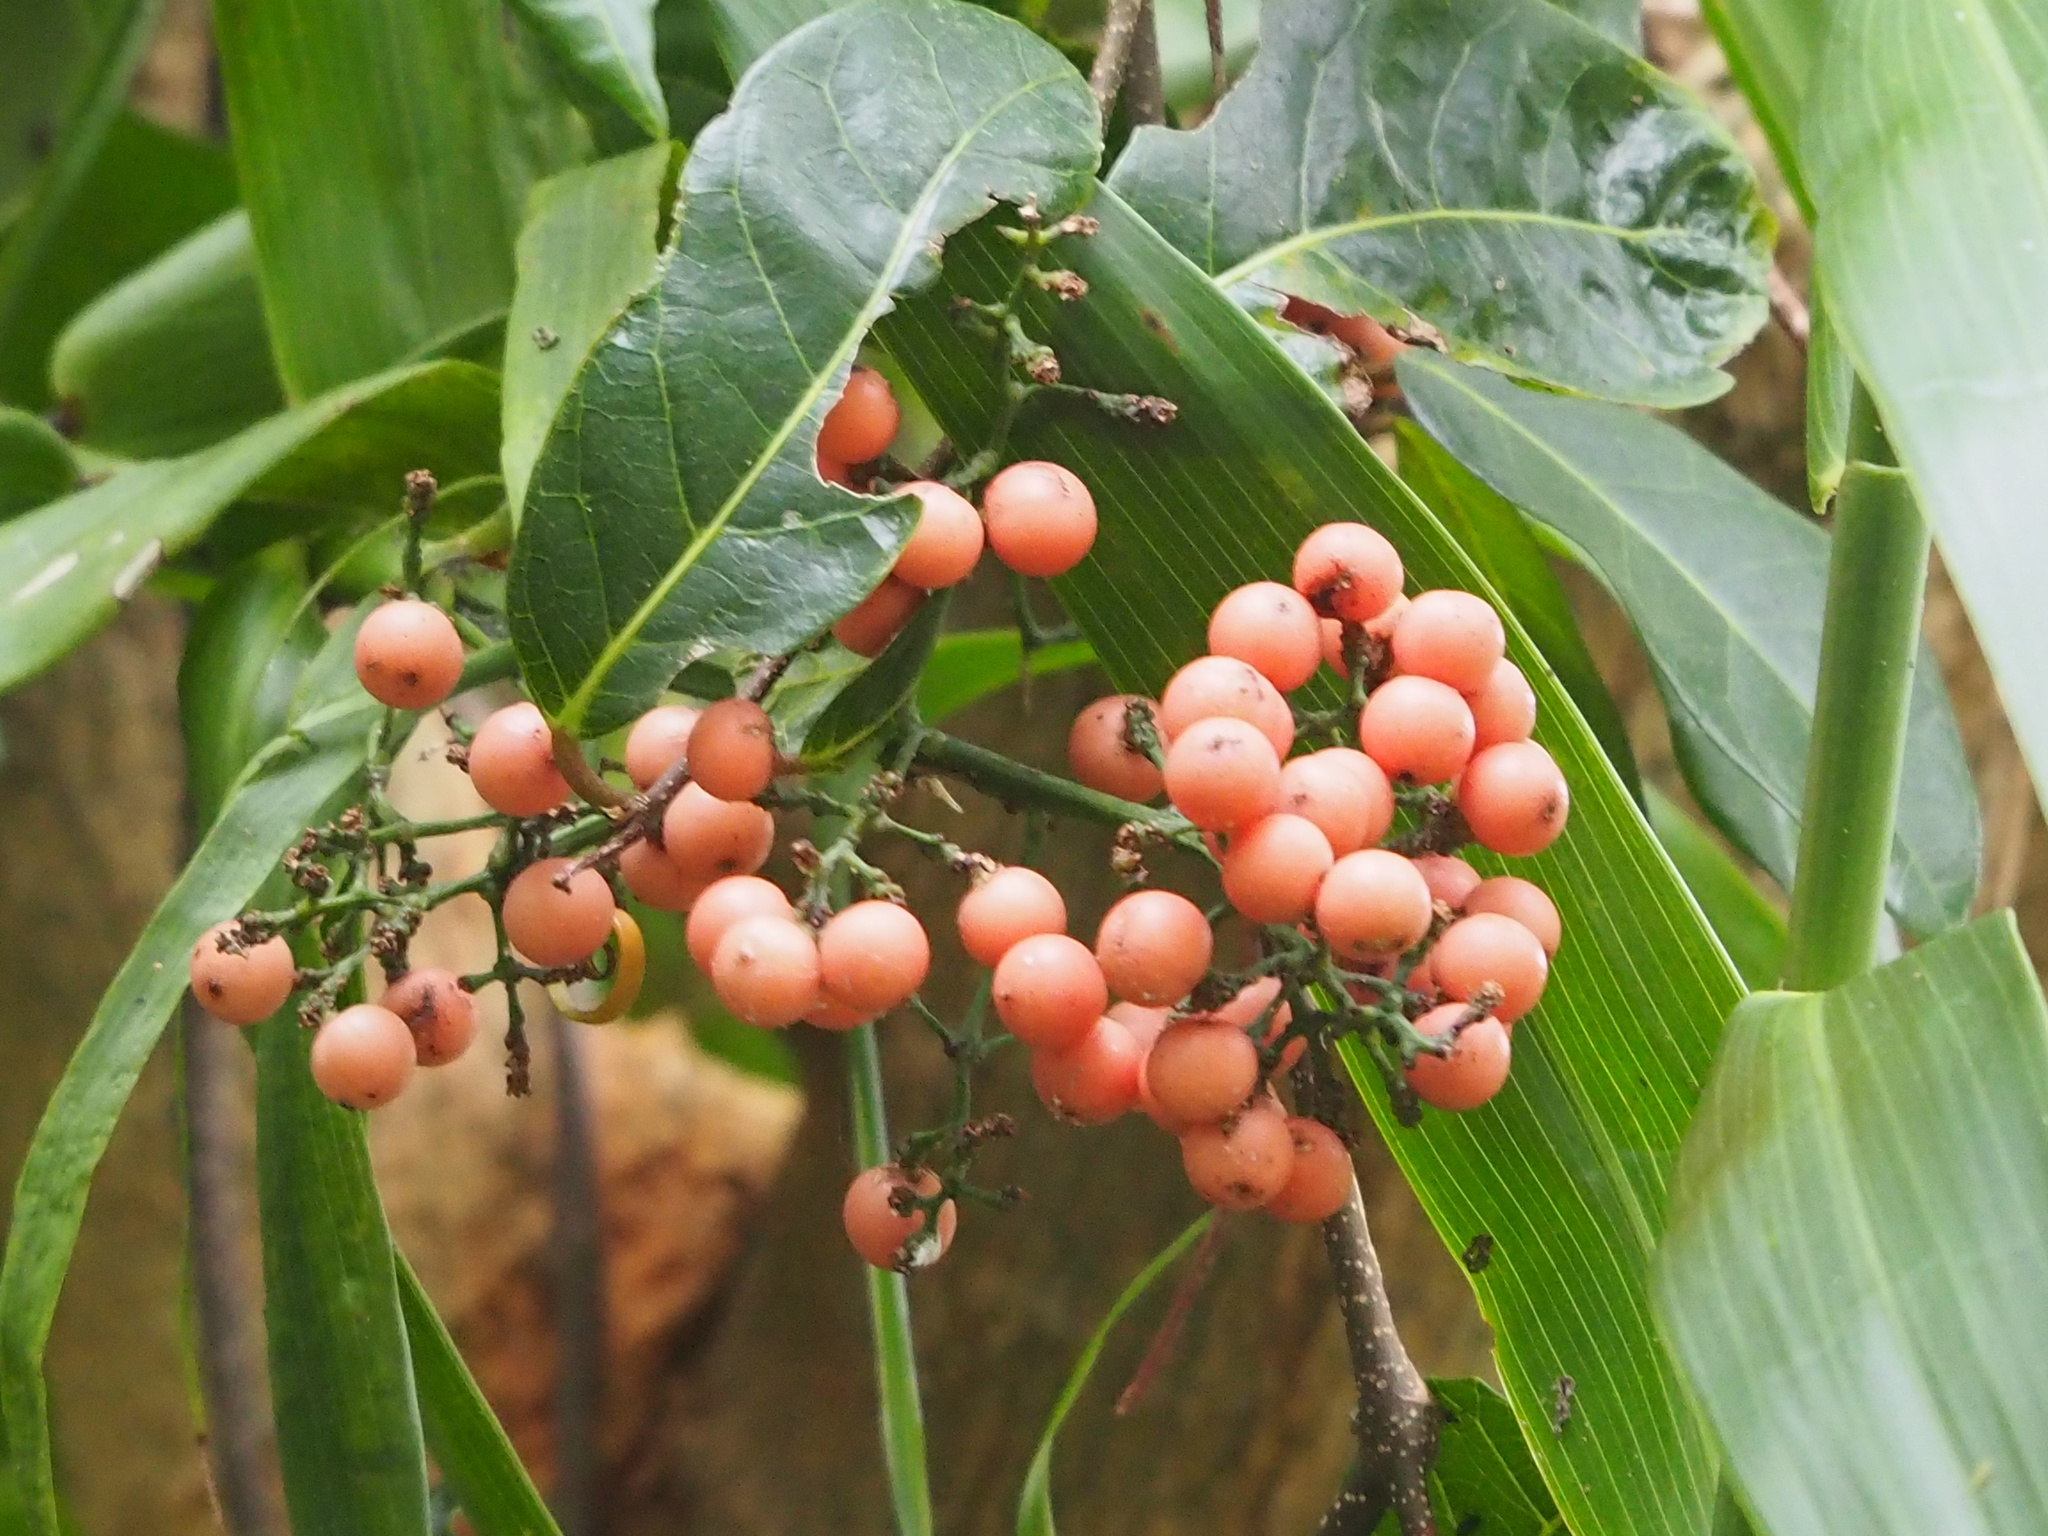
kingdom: Plantae
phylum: Tracheophyta
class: Liliopsida
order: Poales
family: Flagellariaceae
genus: Flagellaria
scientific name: Flagellaria indica
